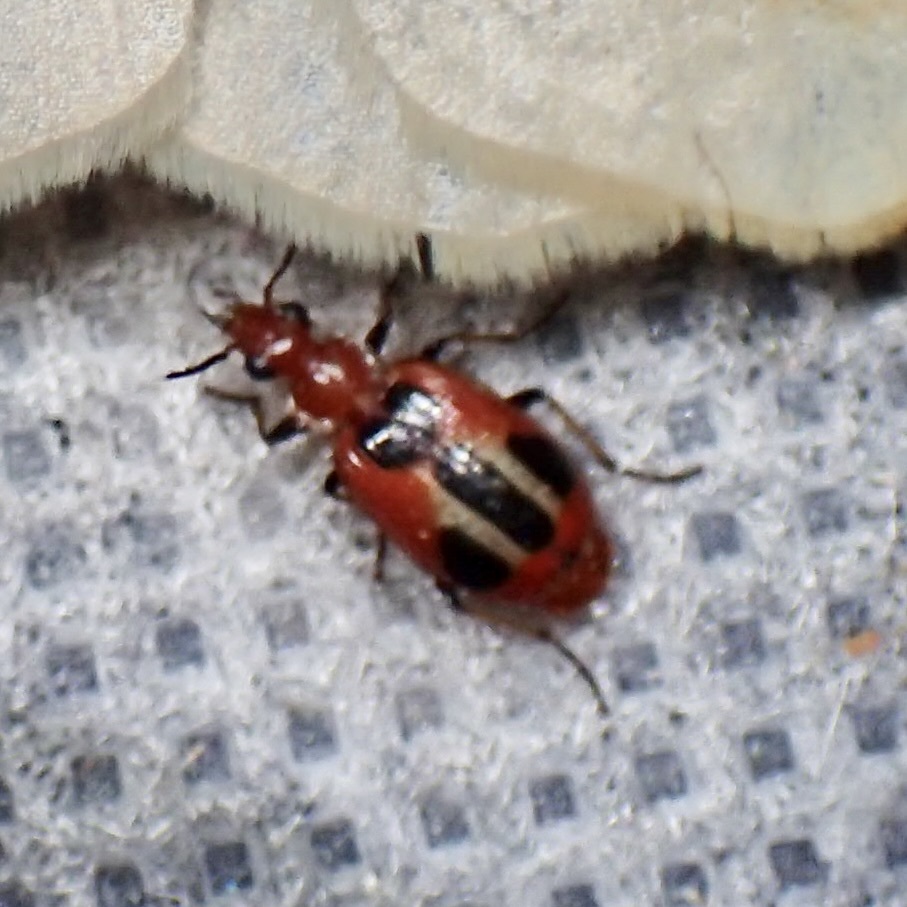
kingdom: Animalia
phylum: Arthropoda
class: Insecta
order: Coleoptera
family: Carabidae
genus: Lebia
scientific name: Lebia histrionica
